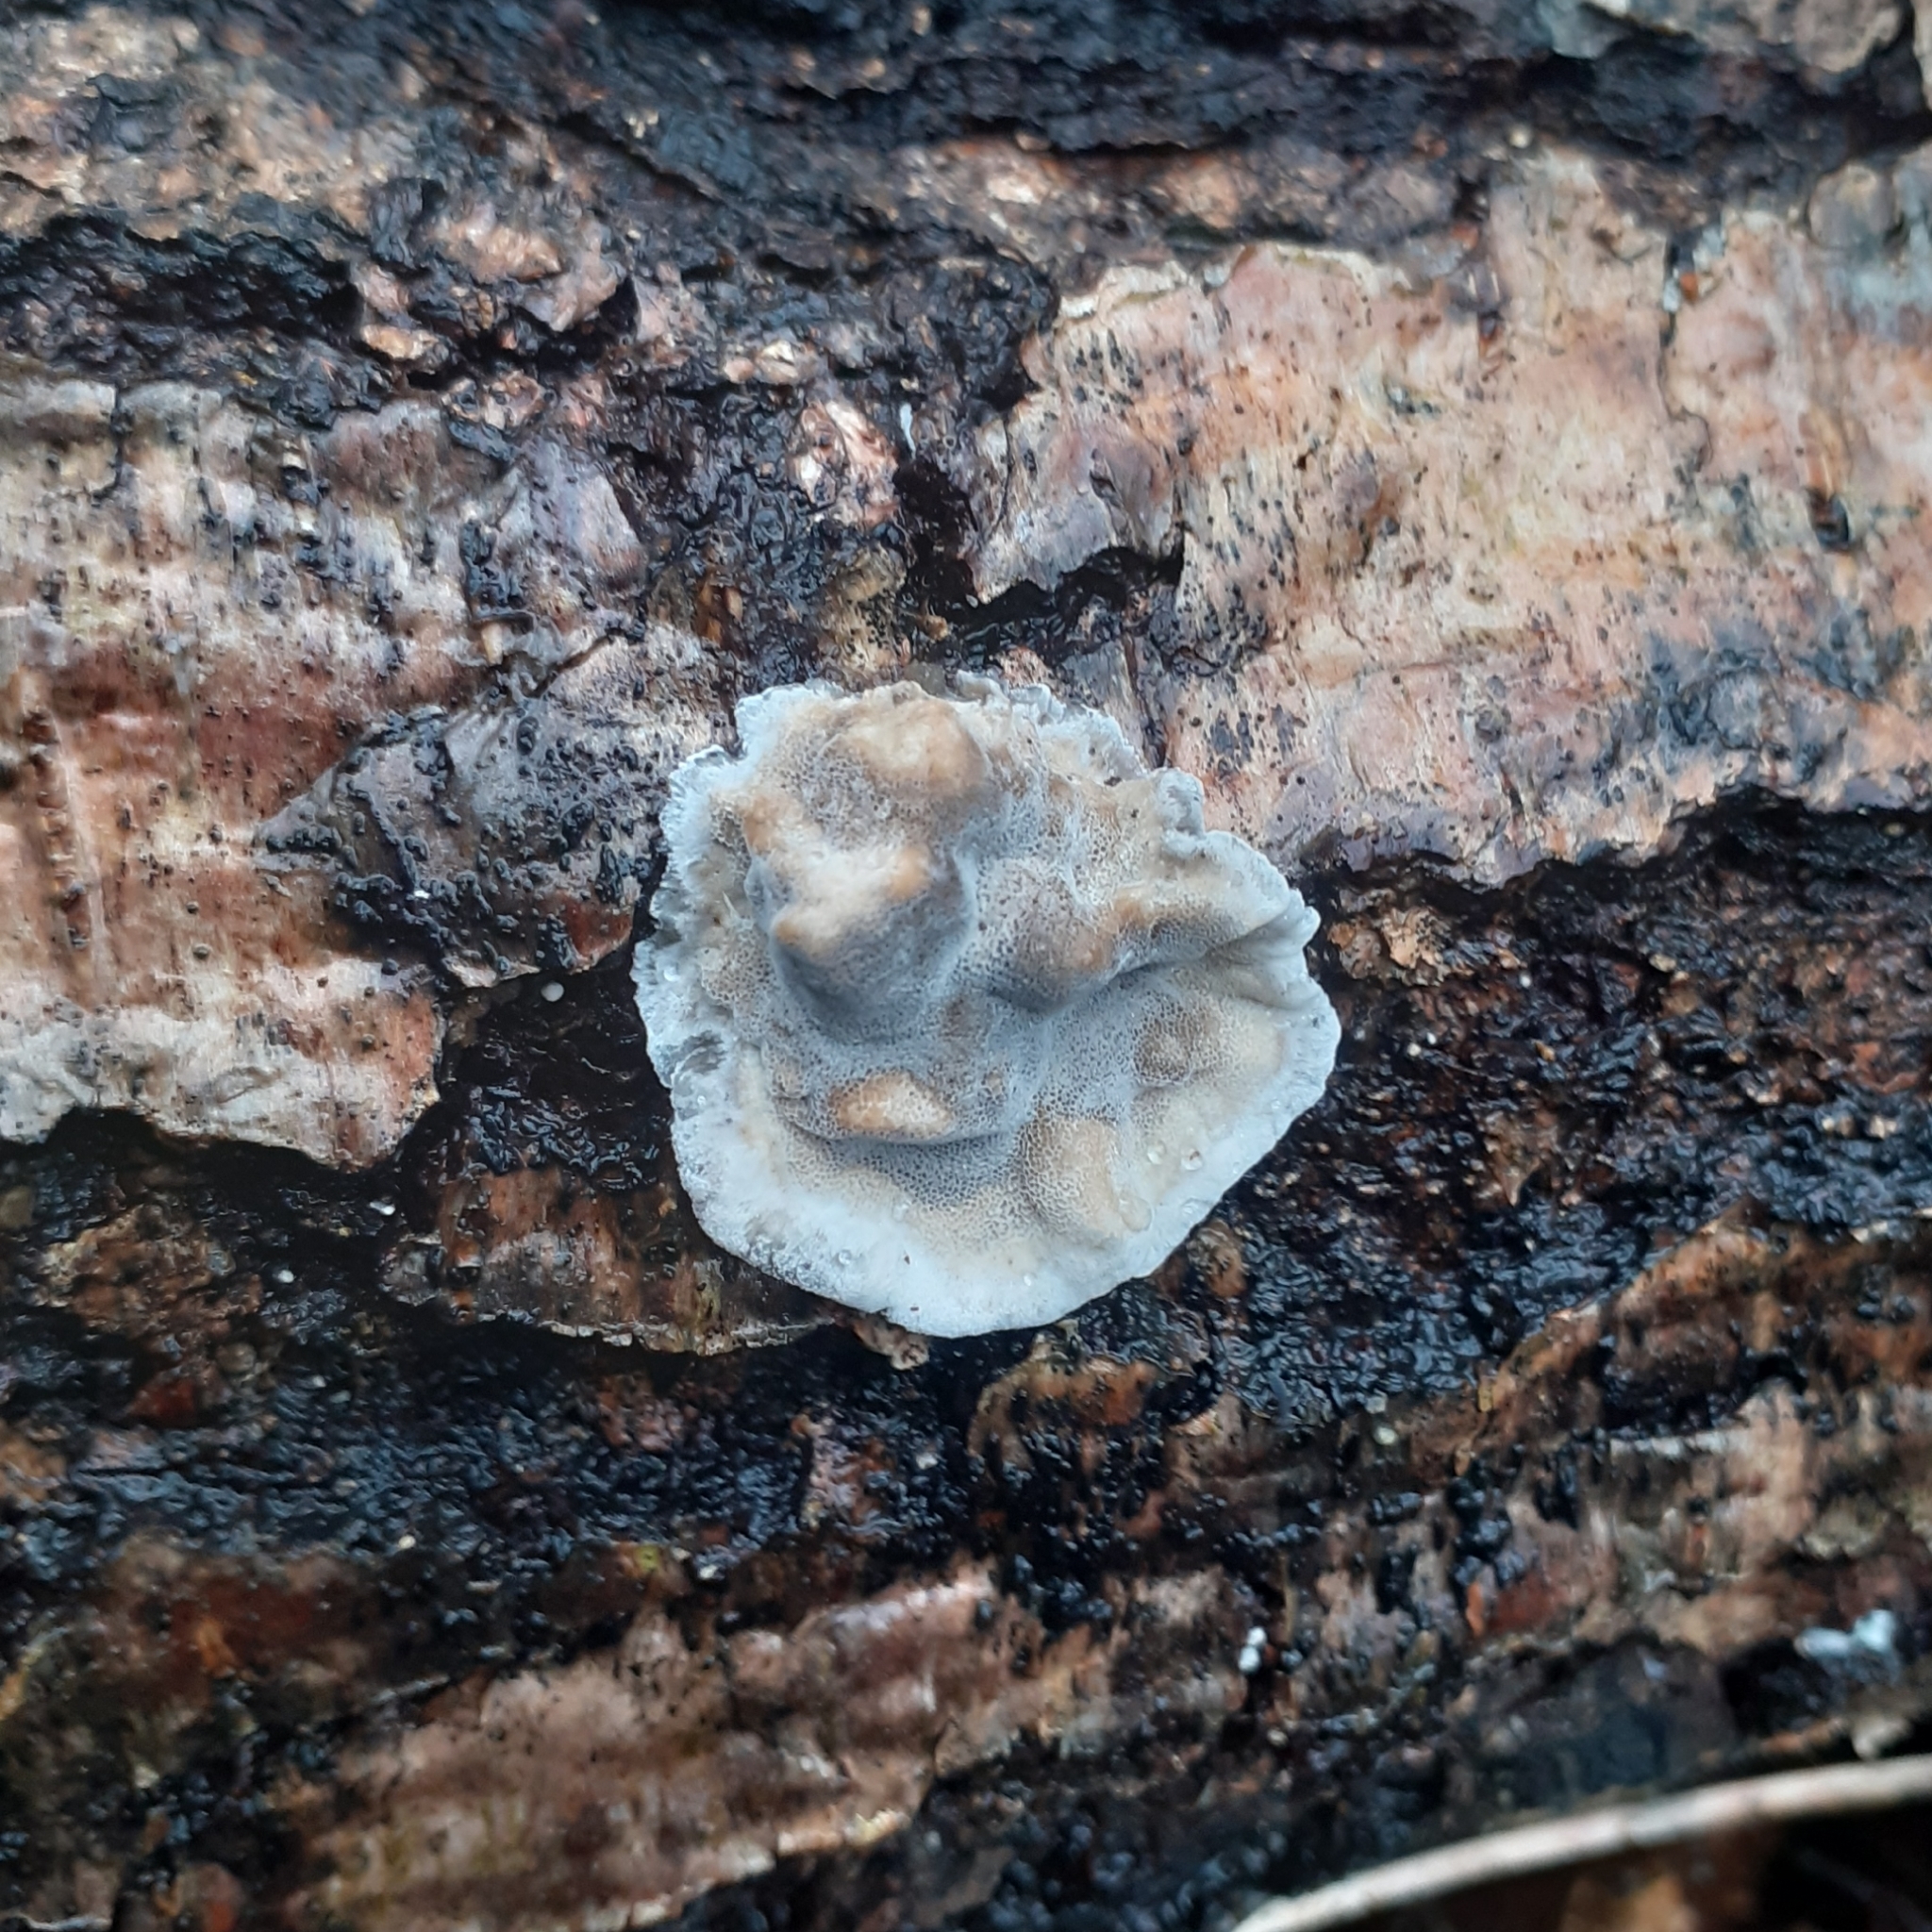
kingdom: Fungi
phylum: Basidiomycota
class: Agaricomycetes
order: Polyporales
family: Phanerochaetaceae
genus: Bjerkandera
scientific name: Bjerkandera adusta
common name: Smoky bracket
